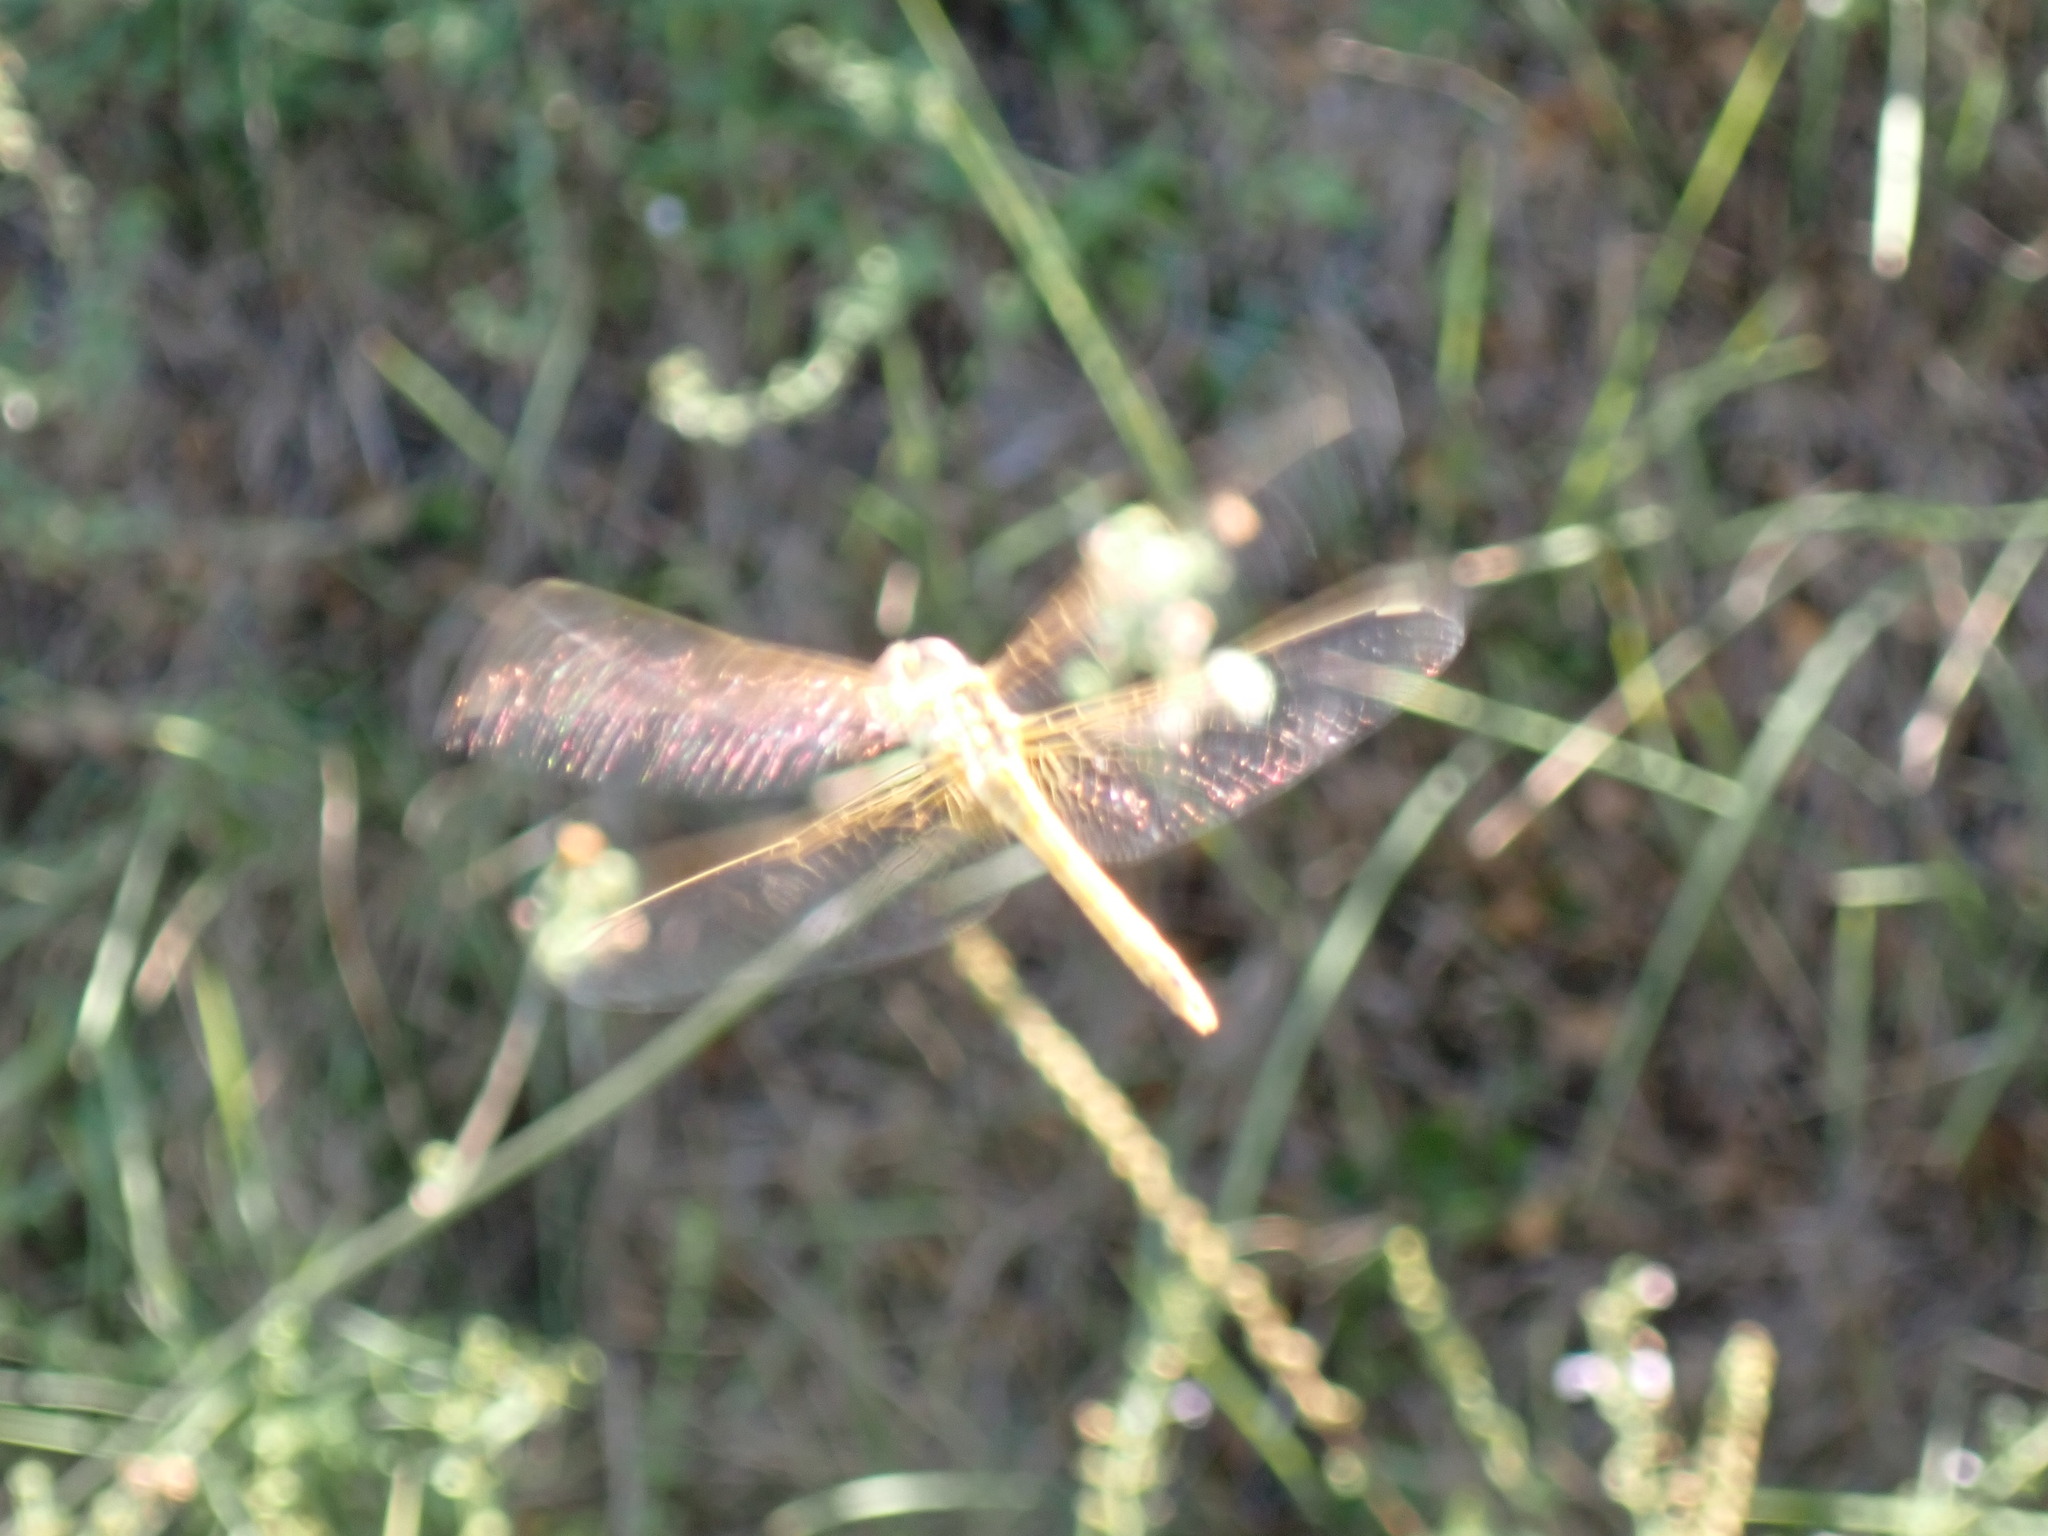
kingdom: Animalia
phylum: Arthropoda
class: Insecta
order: Odonata
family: Libellulidae
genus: Sympetrum
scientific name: Sympetrum fonscolombii
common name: Red-veined darter
